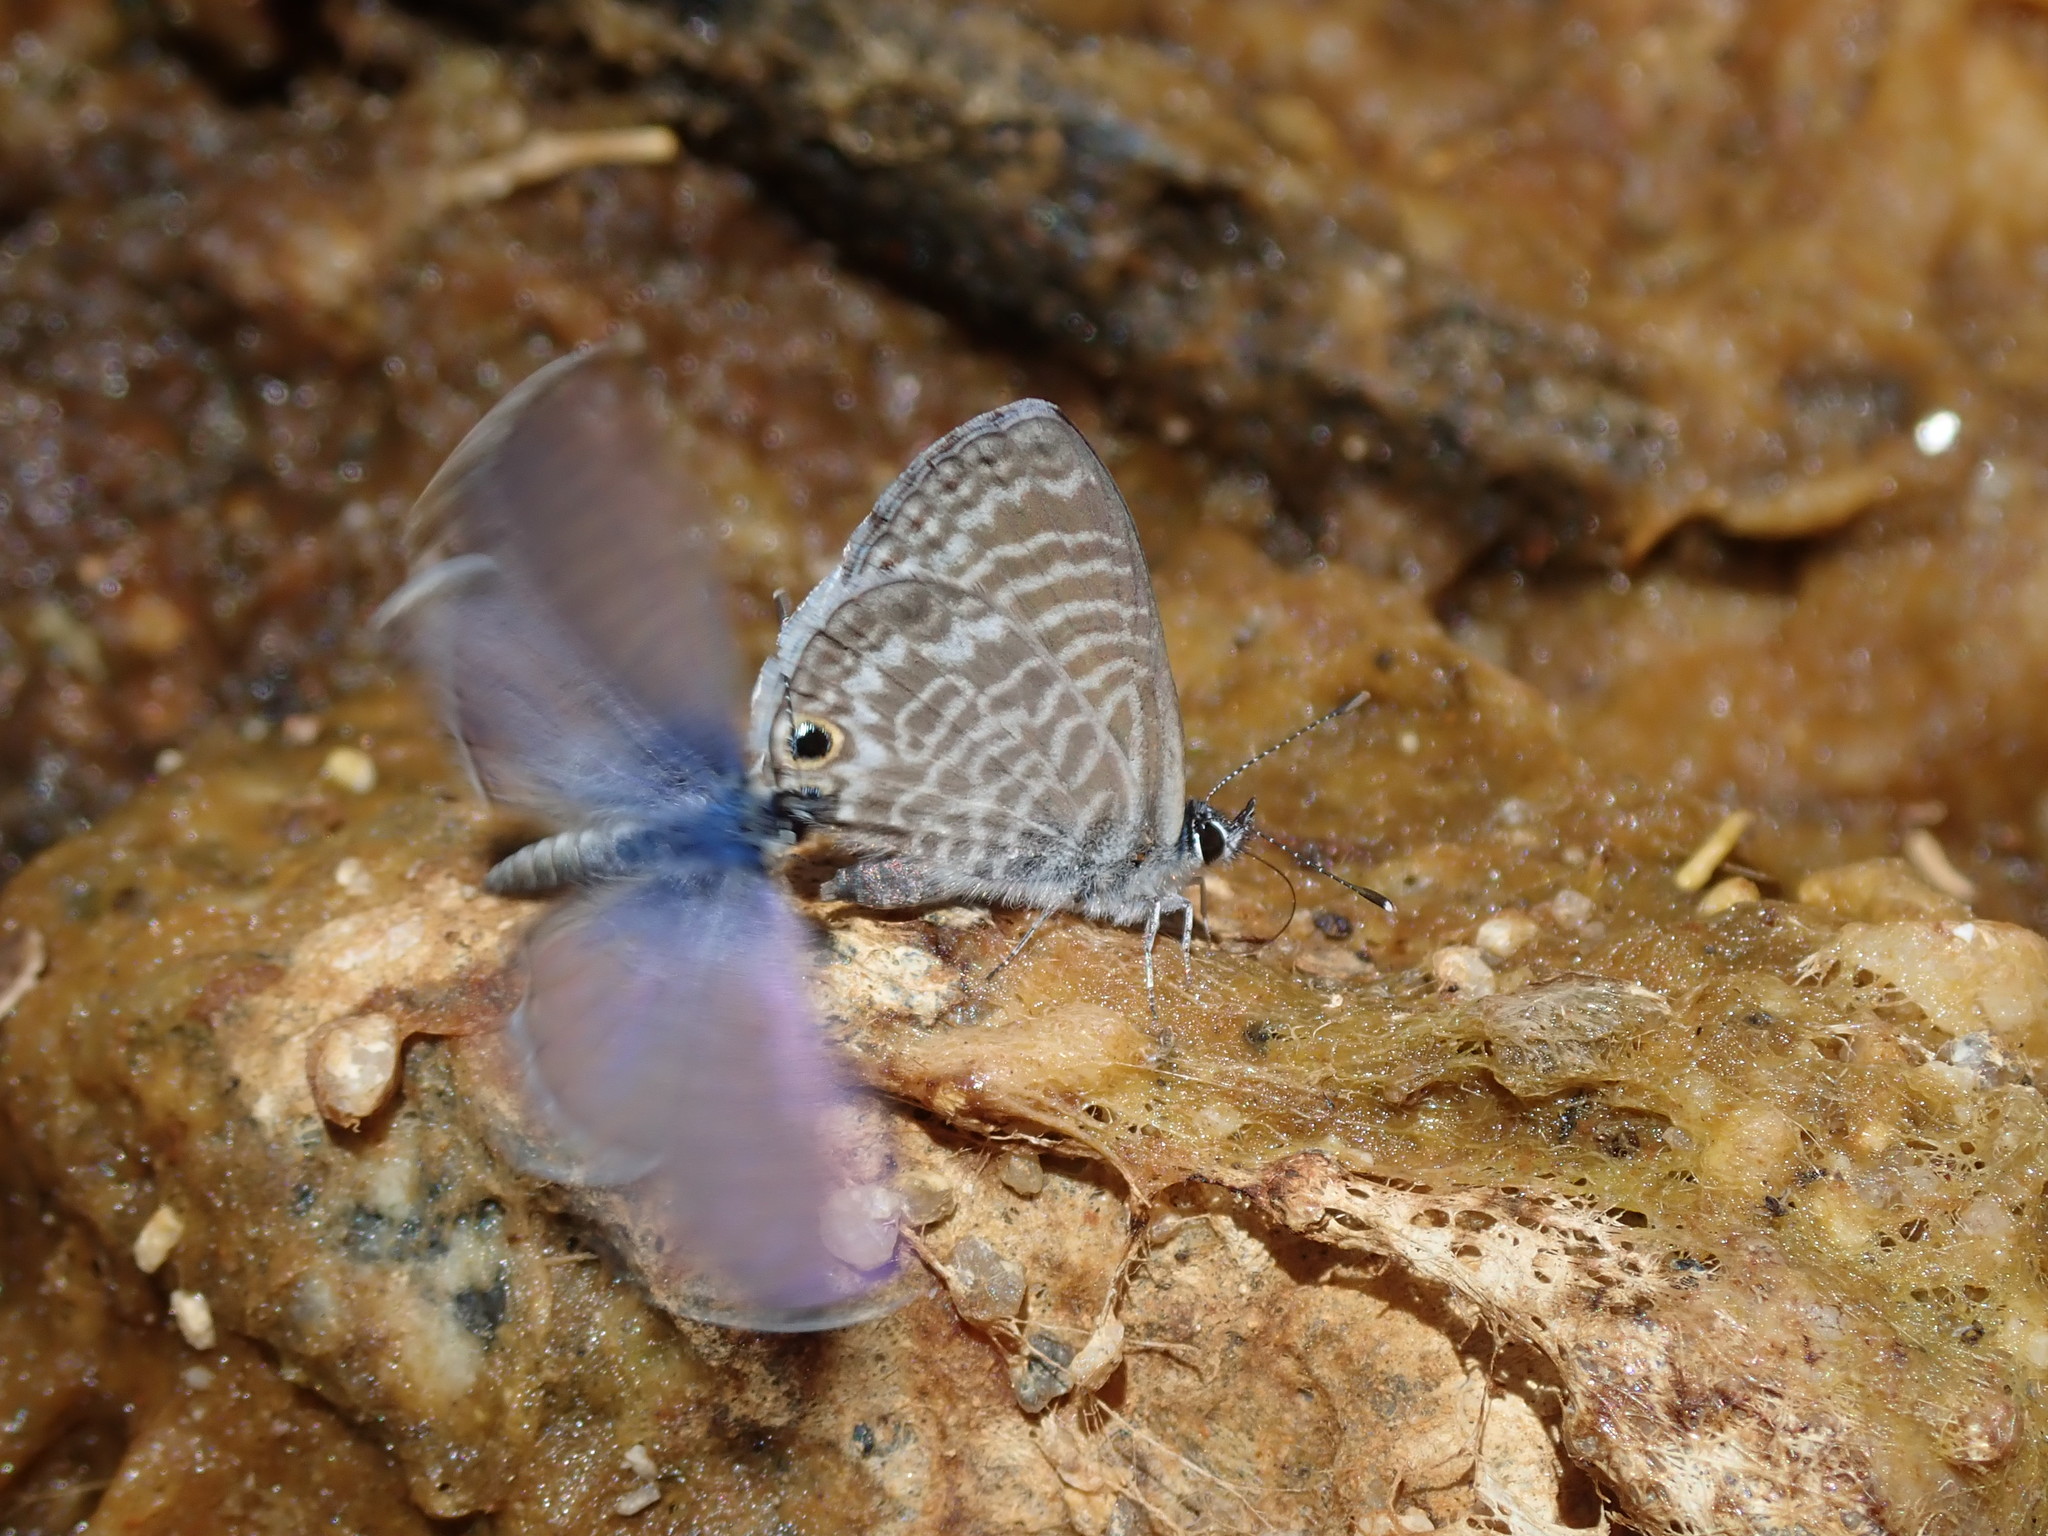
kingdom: Animalia
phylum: Arthropoda
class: Insecta
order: Lepidoptera
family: Lycaenidae
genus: Leptotes
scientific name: Leptotes marina
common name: Marine blue
